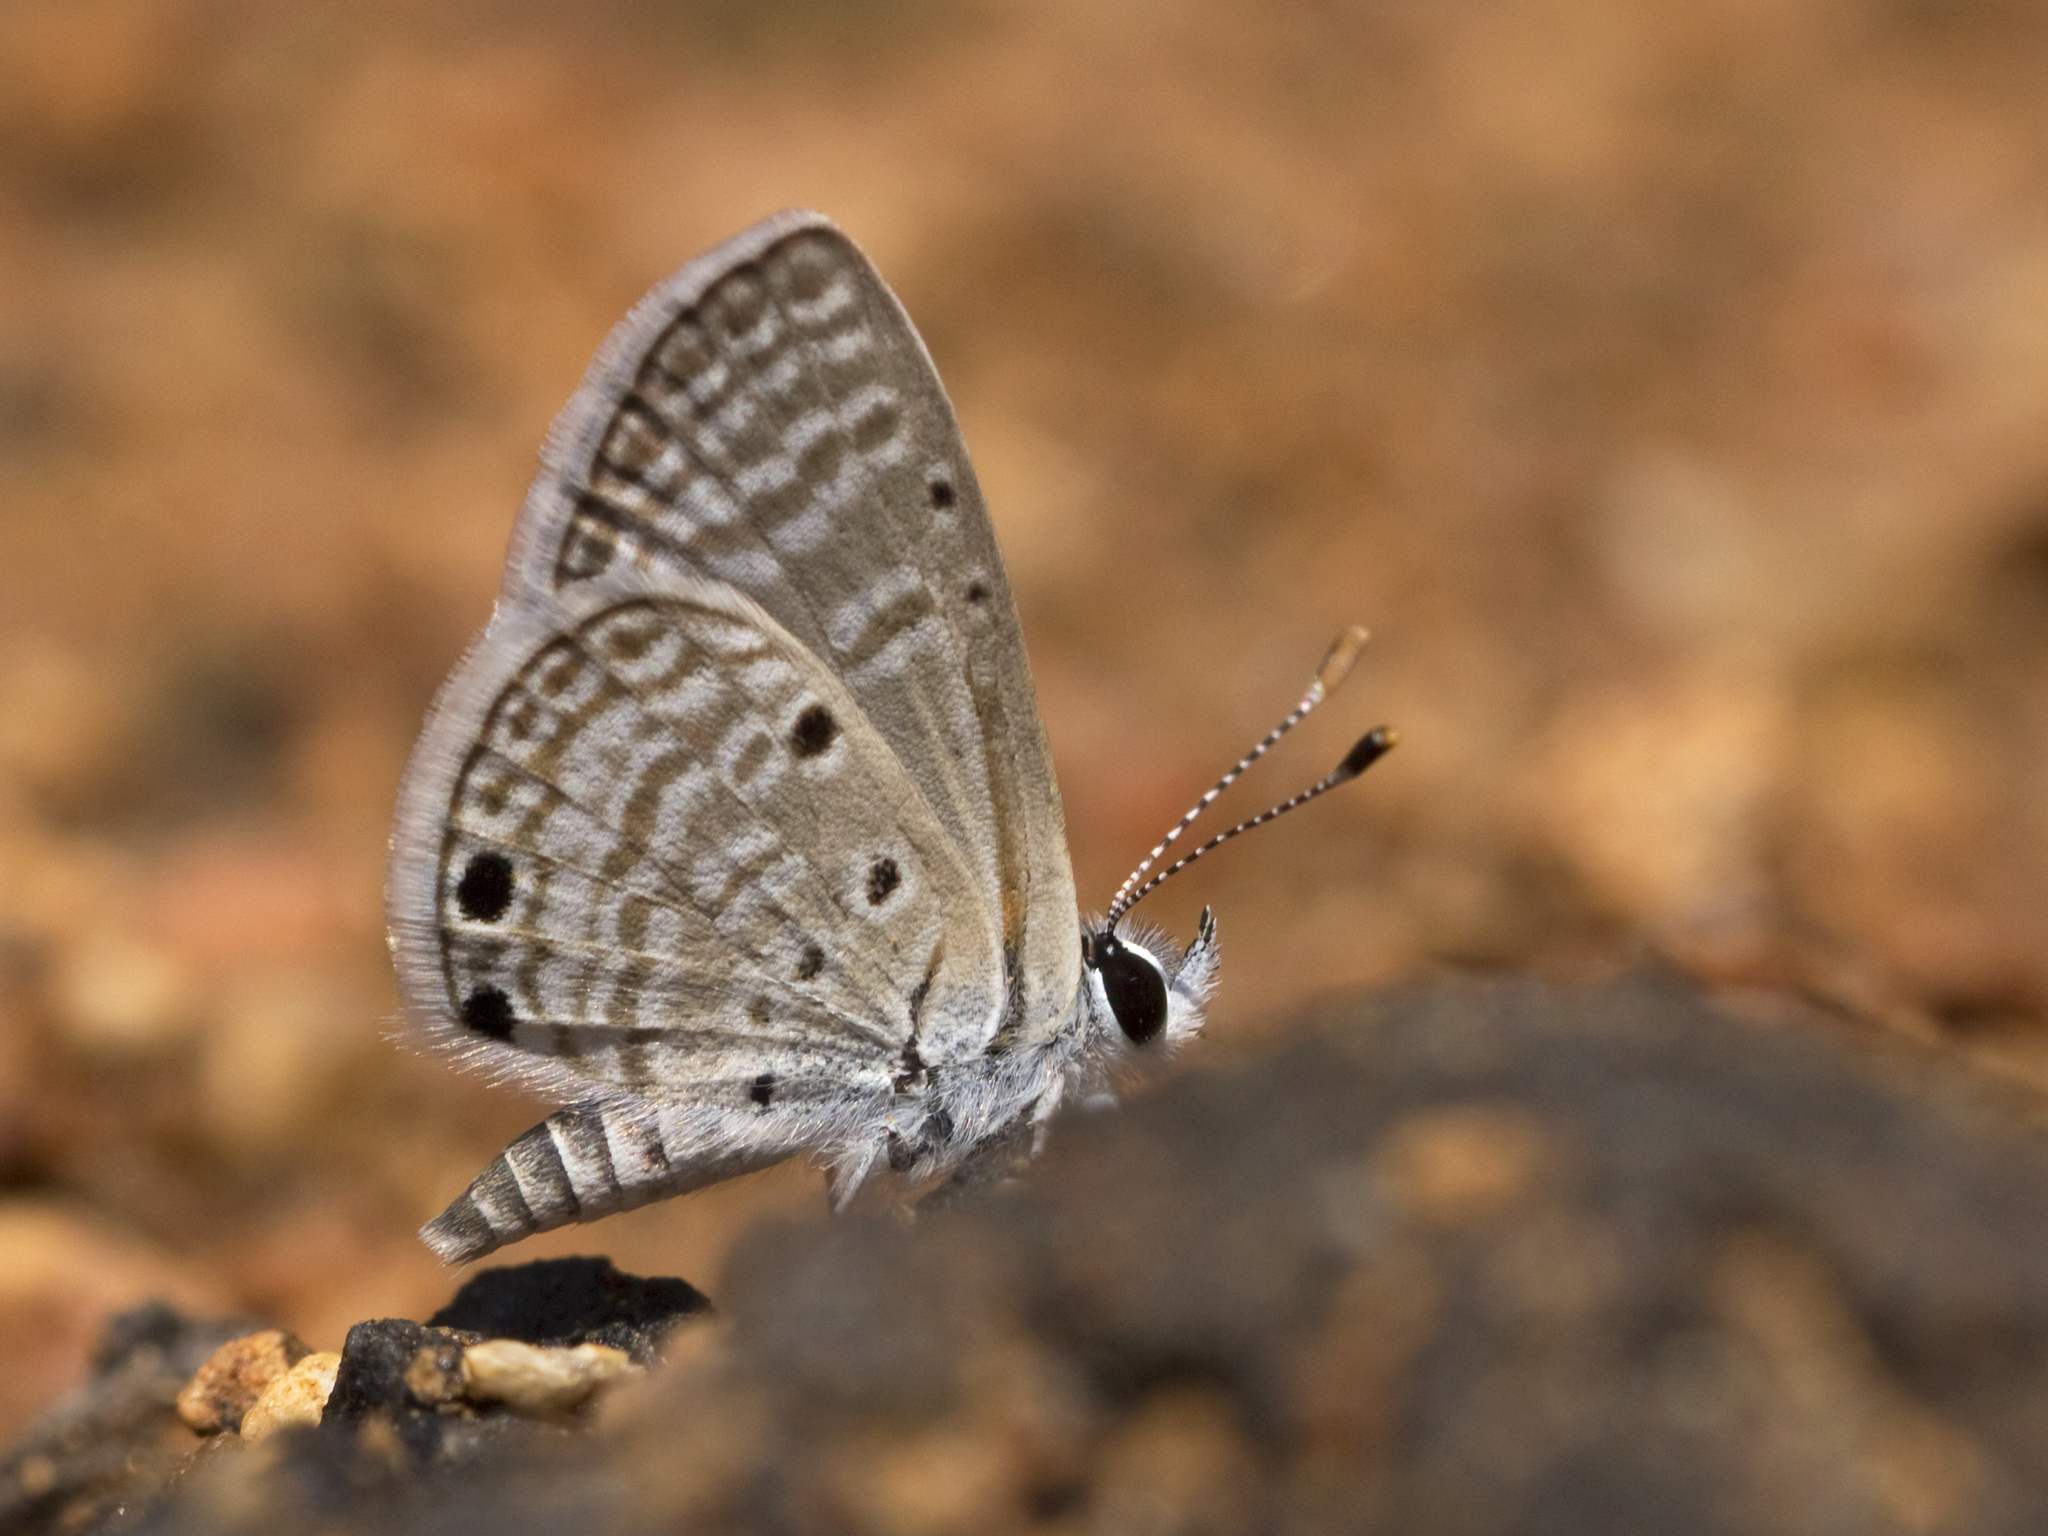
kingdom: Animalia
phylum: Arthropoda
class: Insecta
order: Lepidoptera
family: Lycaenidae
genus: Azanus
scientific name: Azanus ubaldus
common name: Desert babul blue
